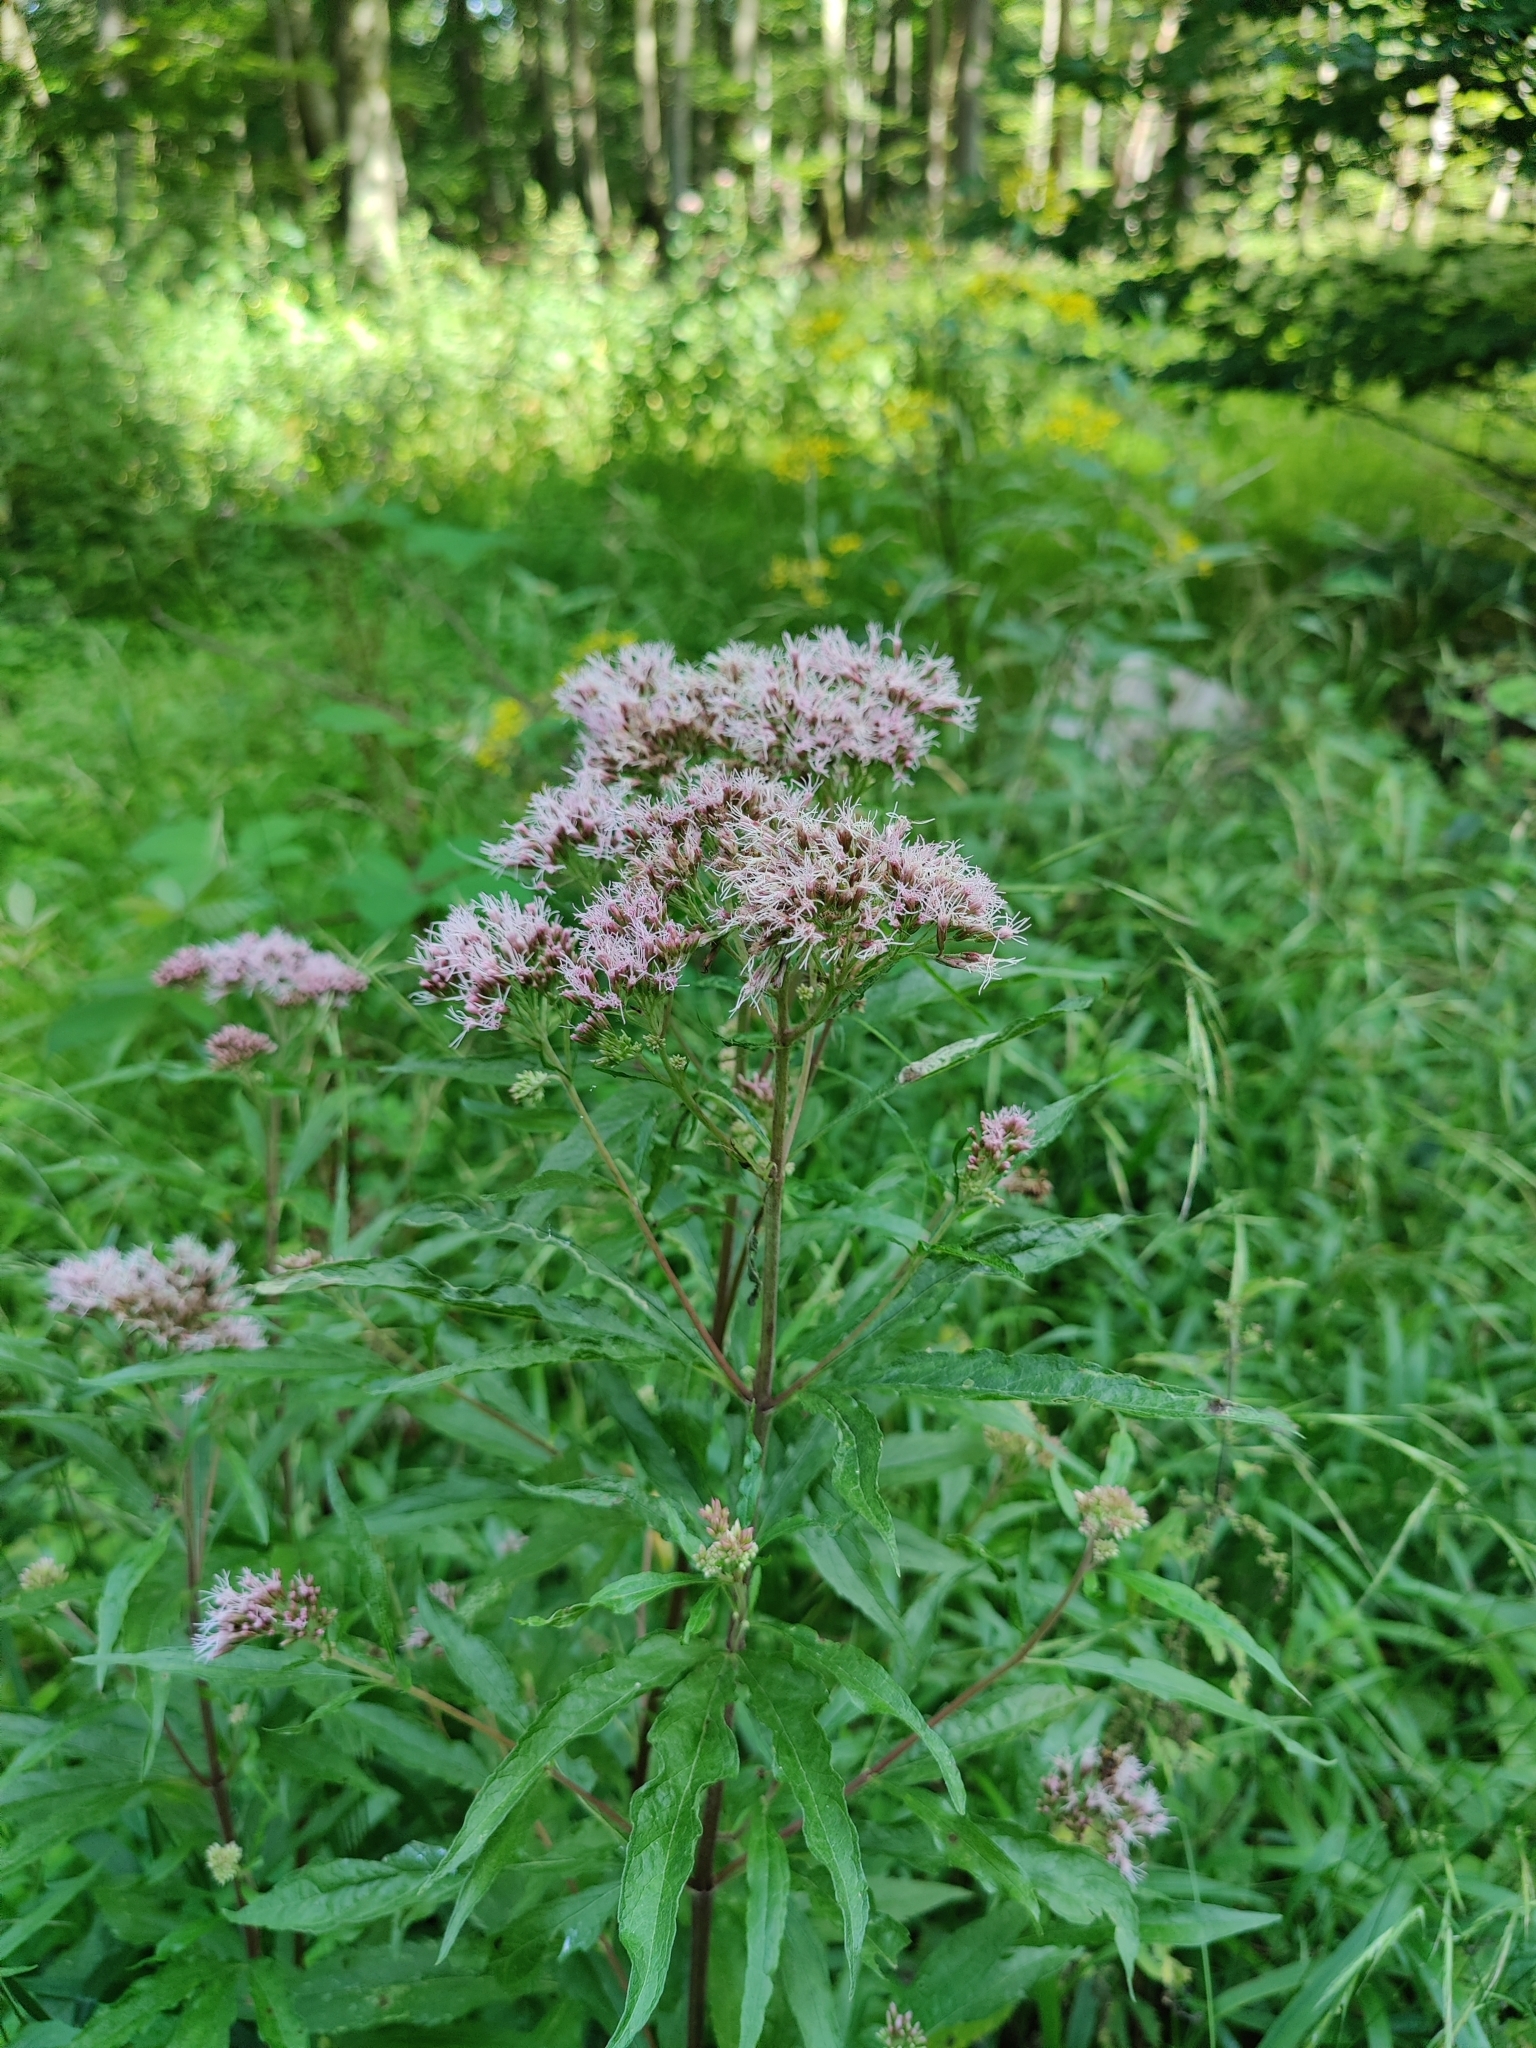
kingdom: Plantae
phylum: Tracheophyta
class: Magnoliopsida
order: Asterales
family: Asteraceae
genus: Eupatorium
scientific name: Eupatorium cannabinum
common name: Hemp-agrimony
